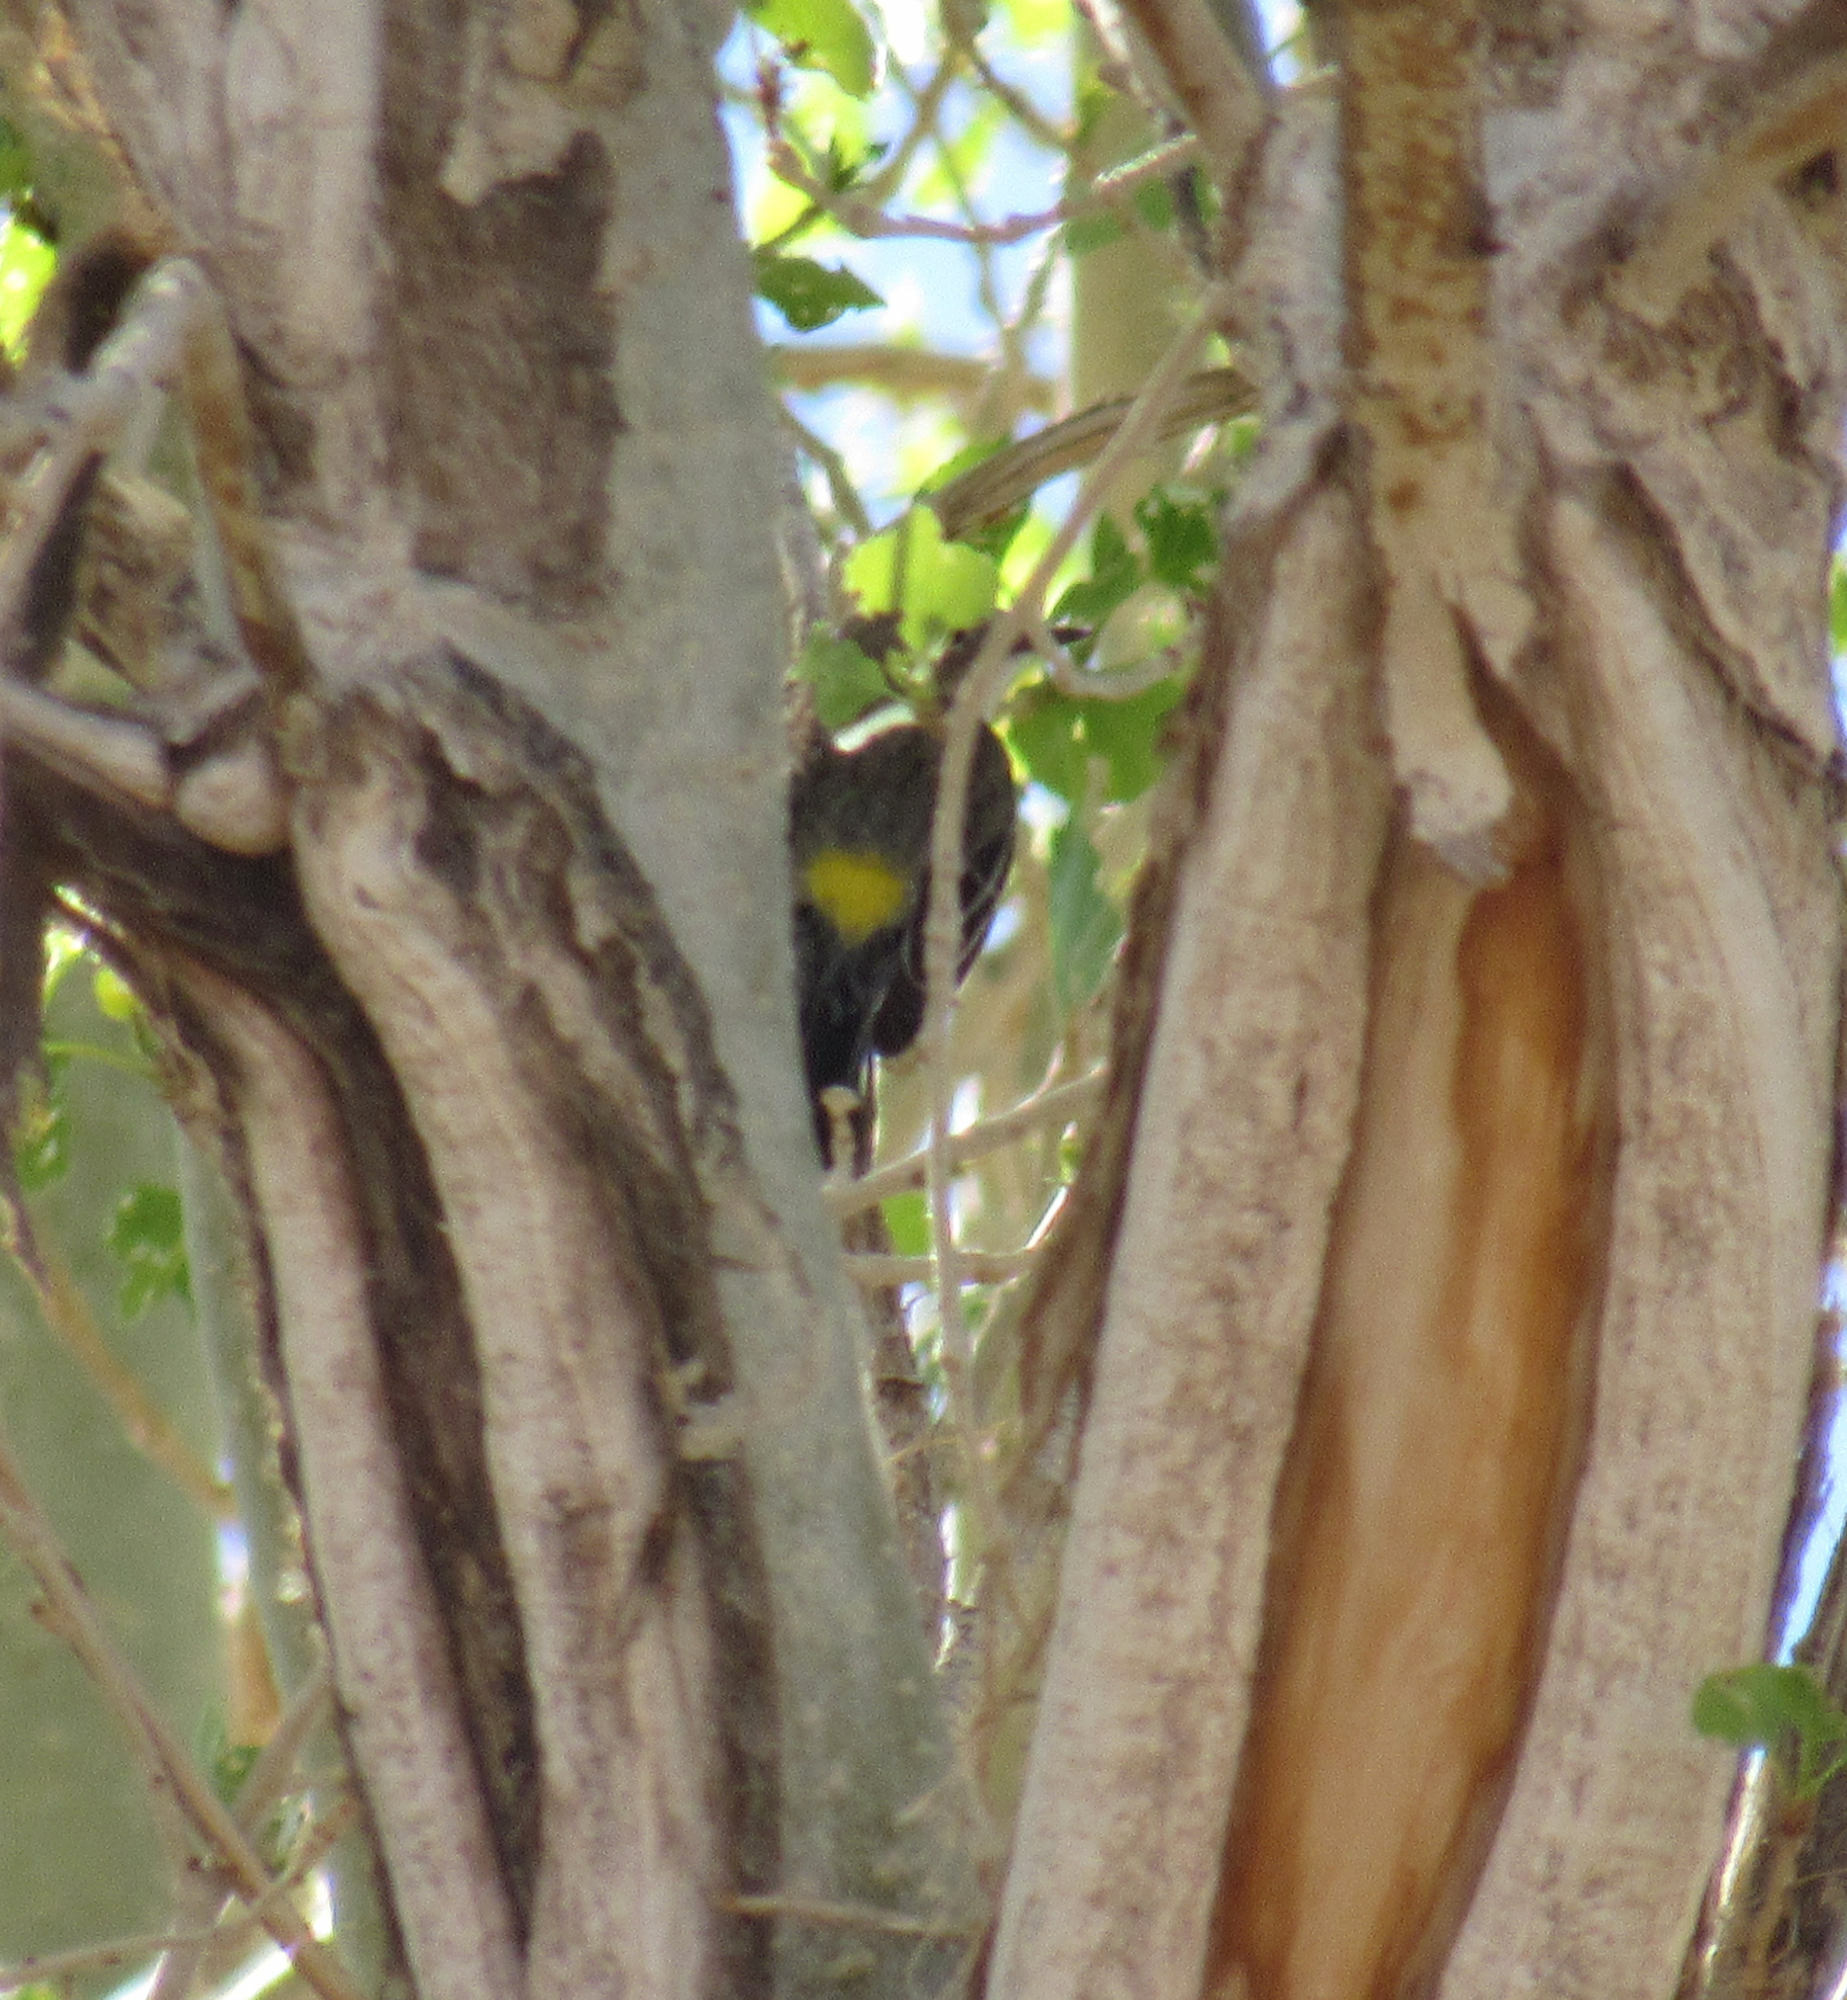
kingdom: Animalia
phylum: Chordata
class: Aves
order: Passeriformes
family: Parulidae
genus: Setophaga
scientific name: Setophaga coronata
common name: Myrtle warbler
